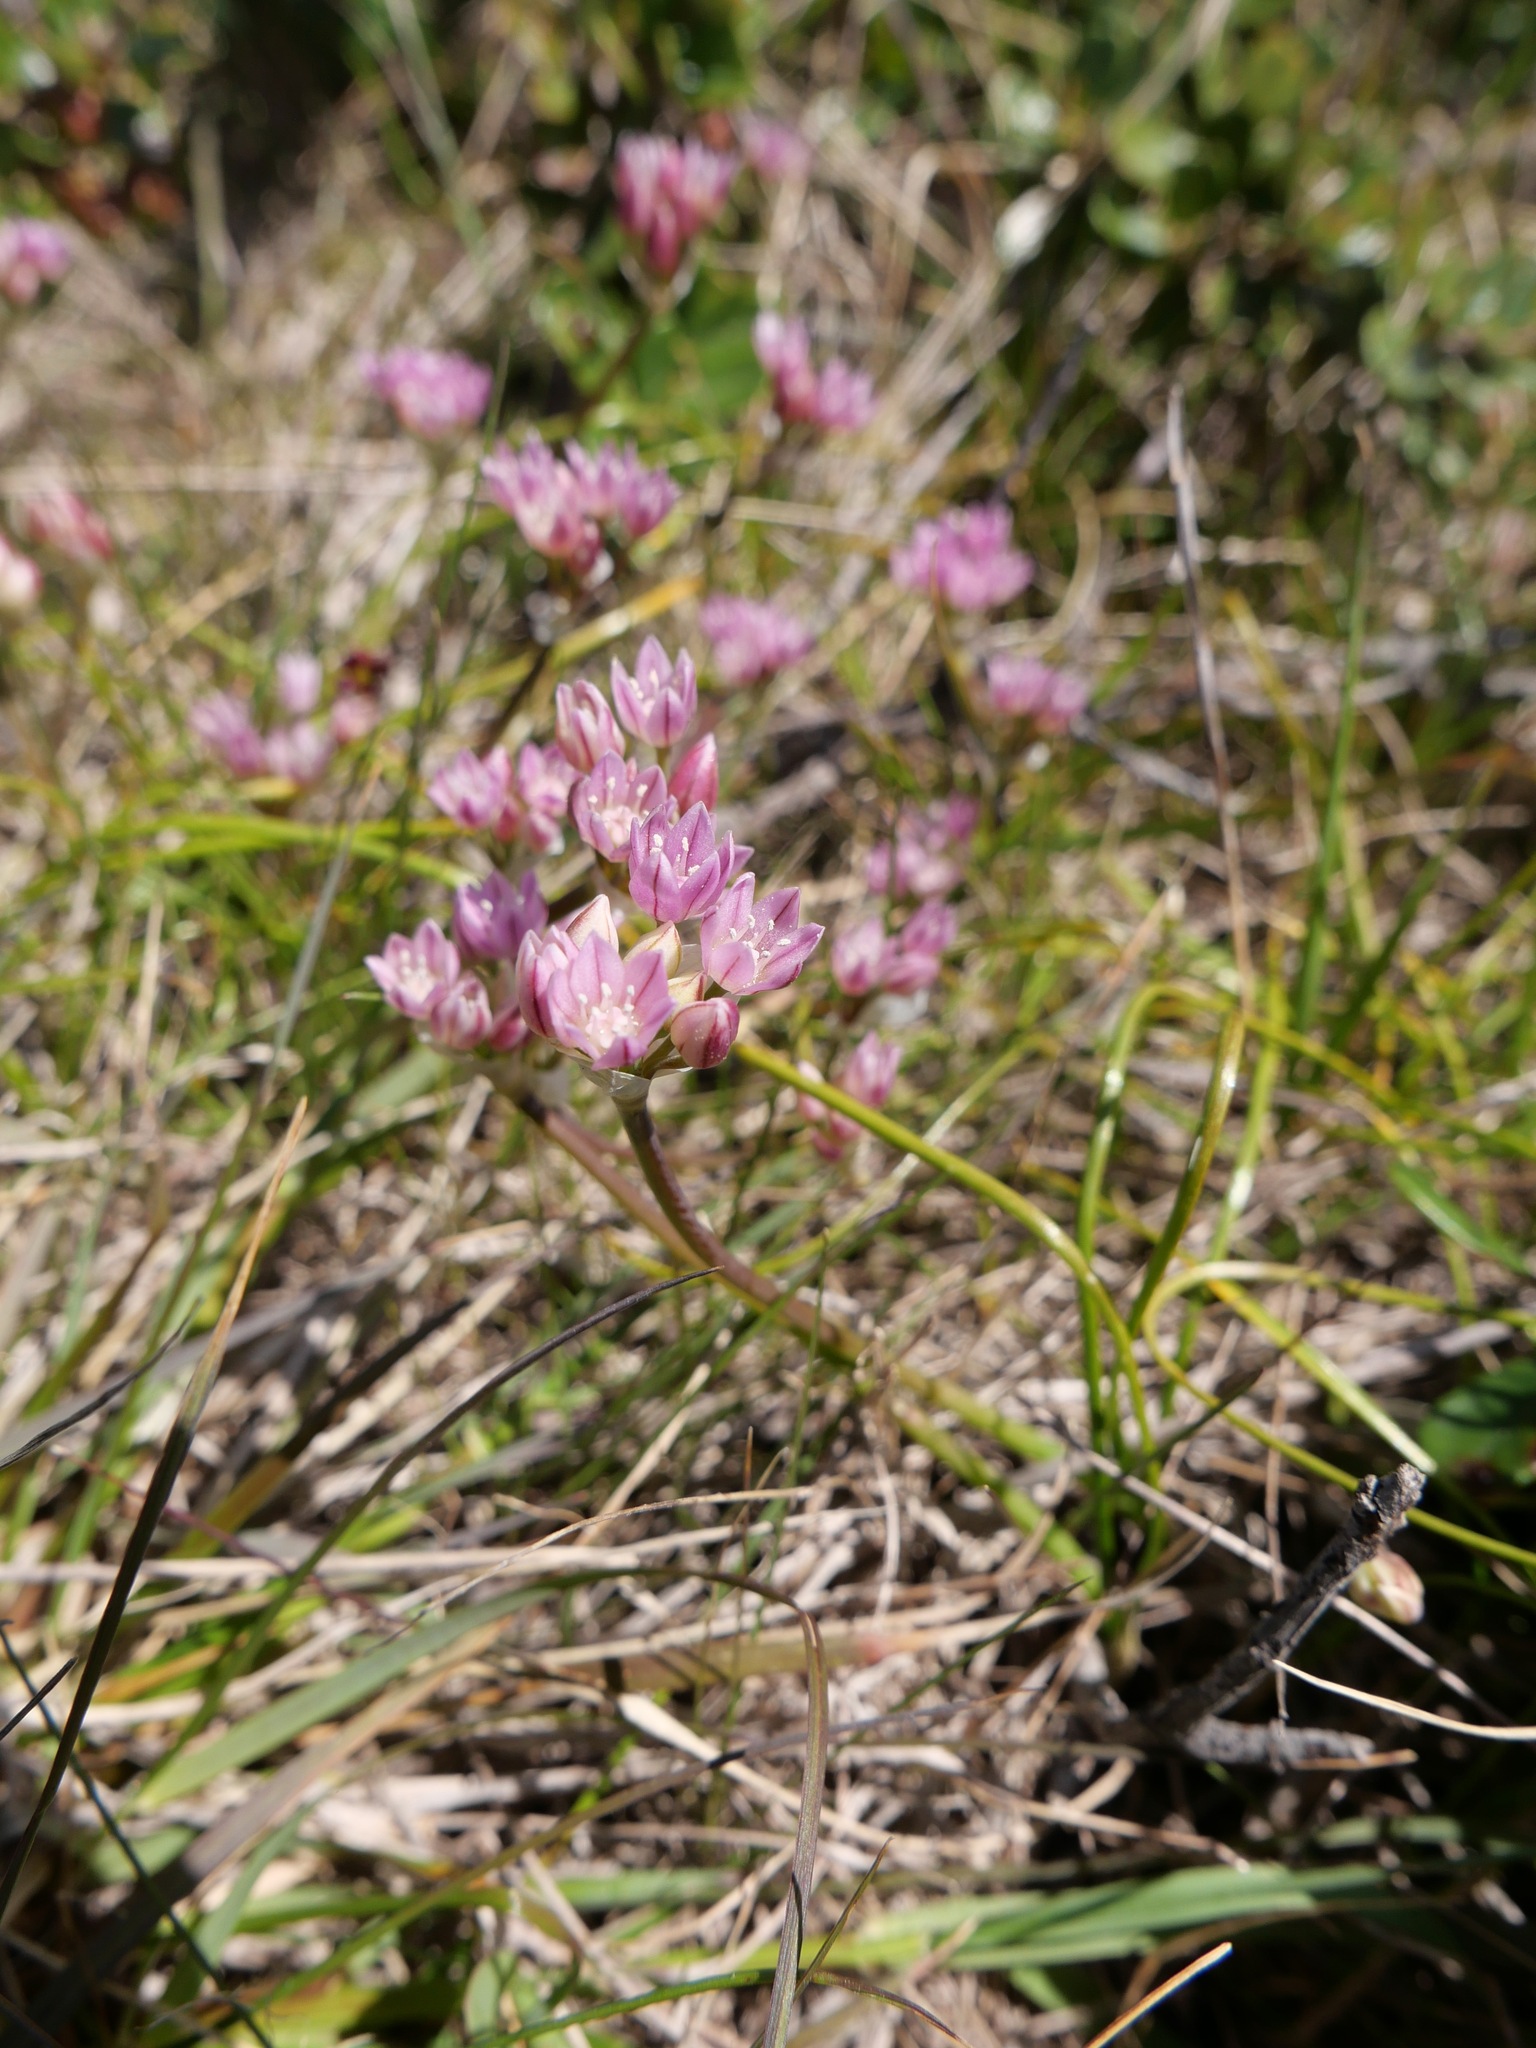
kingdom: Plantae
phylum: Tracheophyta
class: Liliopsida
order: Asparagales
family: Amaryllidaceae
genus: Allium
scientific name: Allium hickmanii
